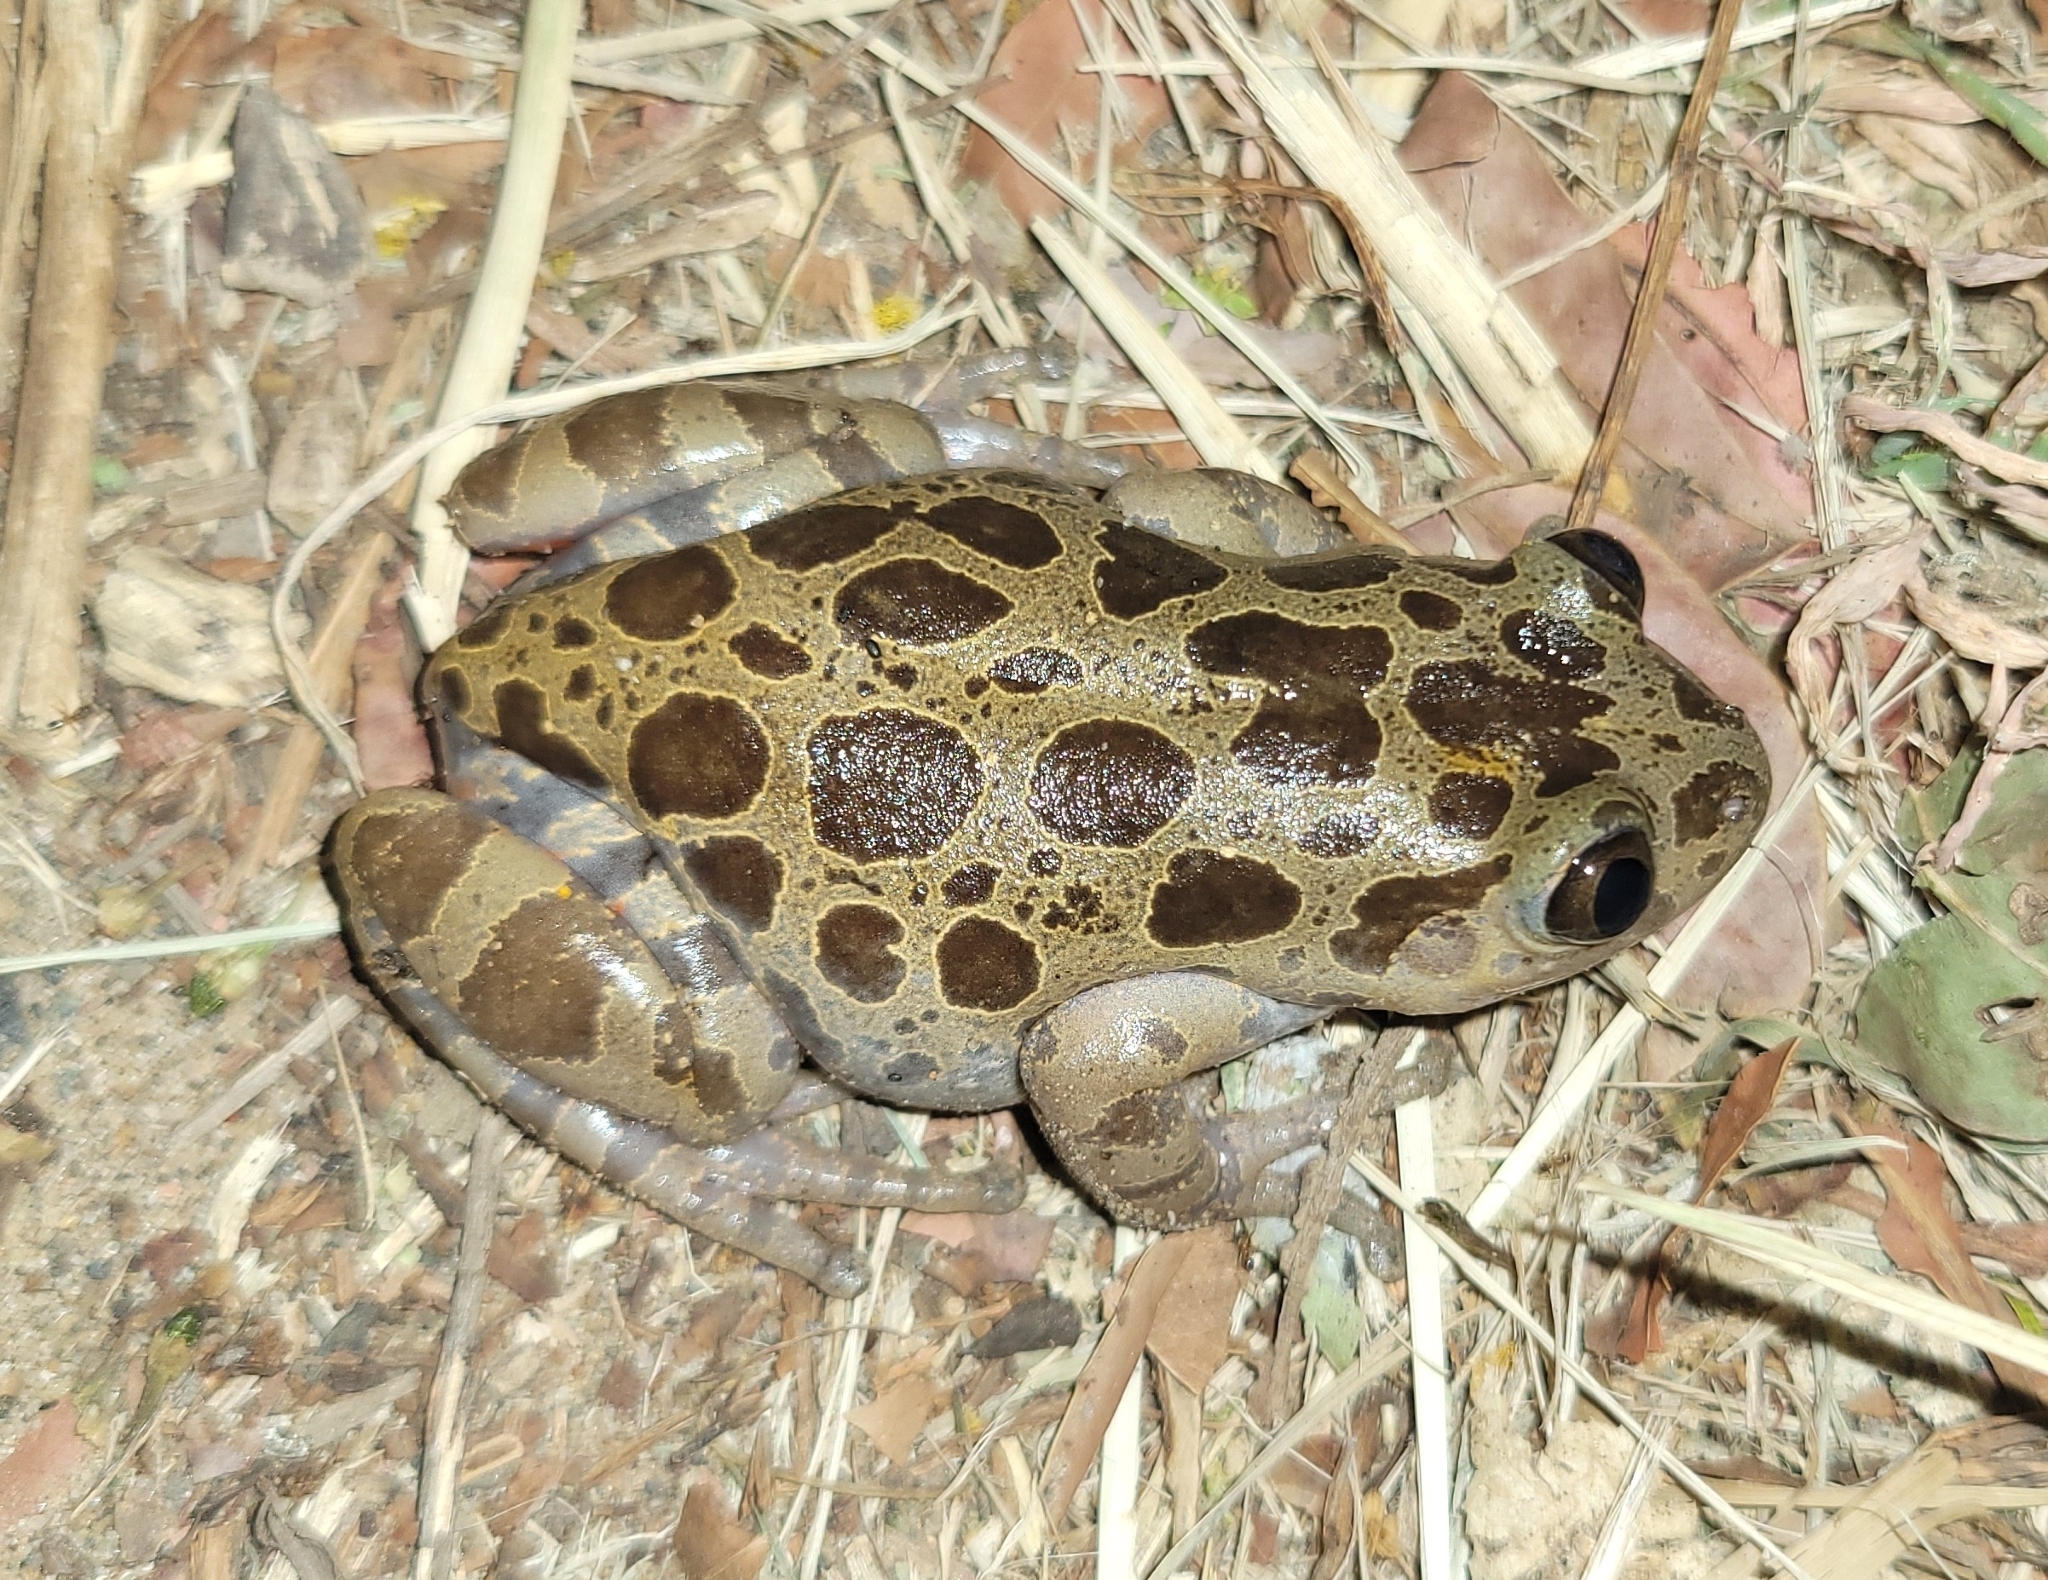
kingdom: Animalia
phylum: Chordata
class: Amphibia
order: Anura
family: Hyperoliidae
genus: Phlyctimantis
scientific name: Phlyctimantis maculatus
